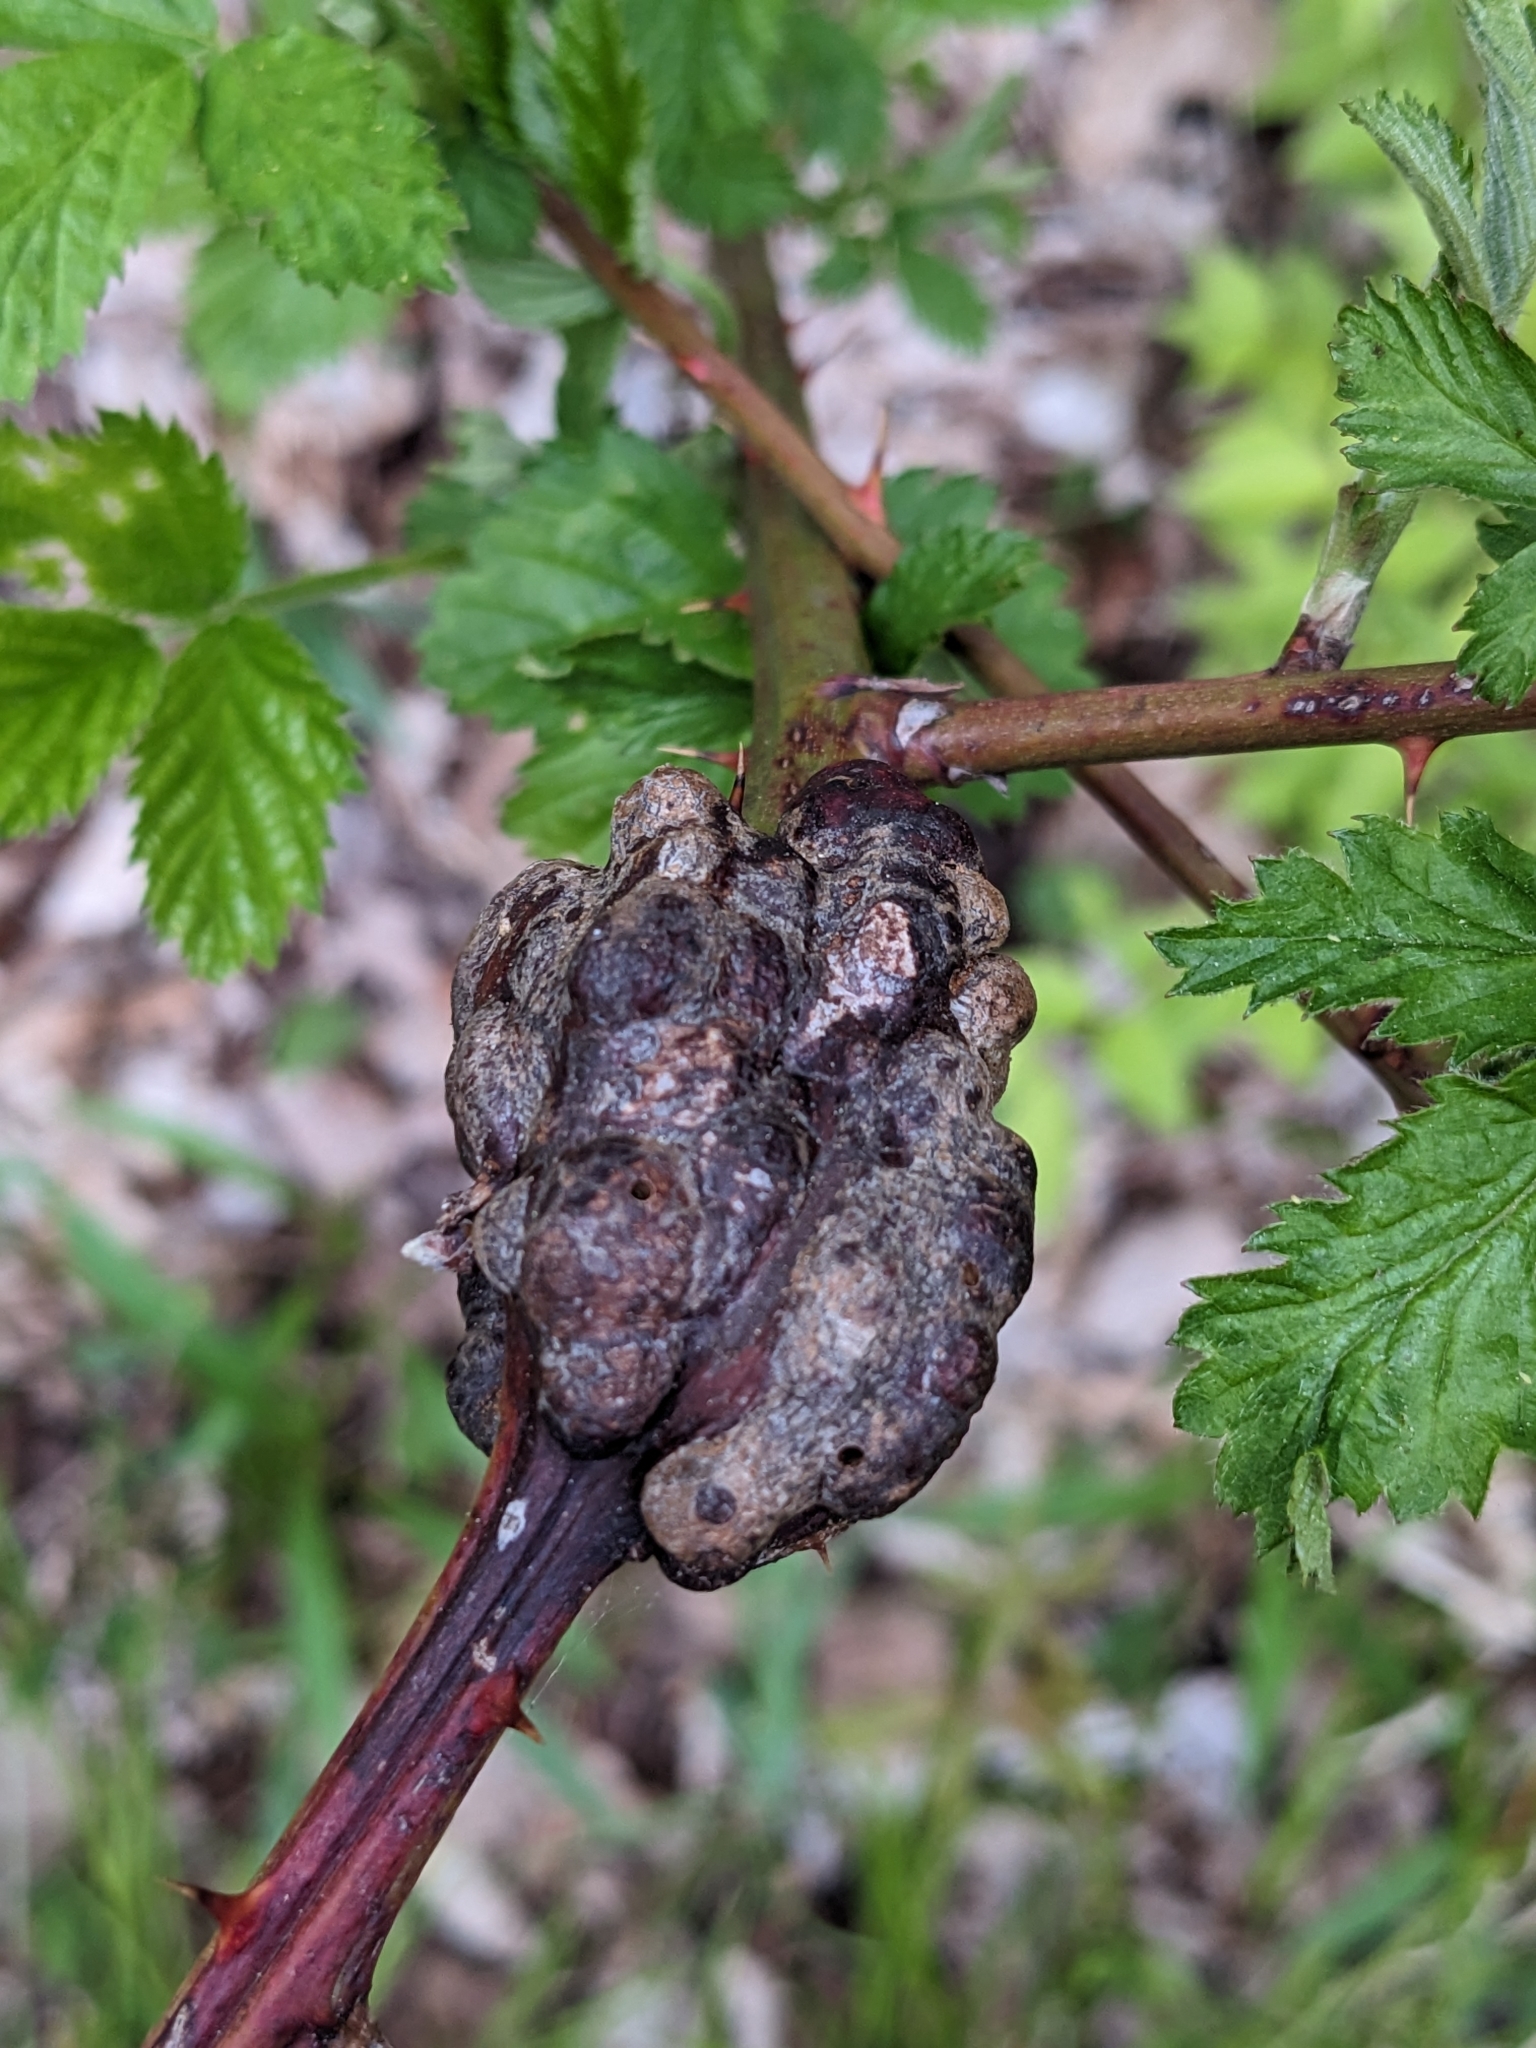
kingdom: Animalia
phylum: Arthropoda
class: Insecta
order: Hymenoptera
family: Cynipidae
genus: Diastrophus
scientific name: Diastrophus
